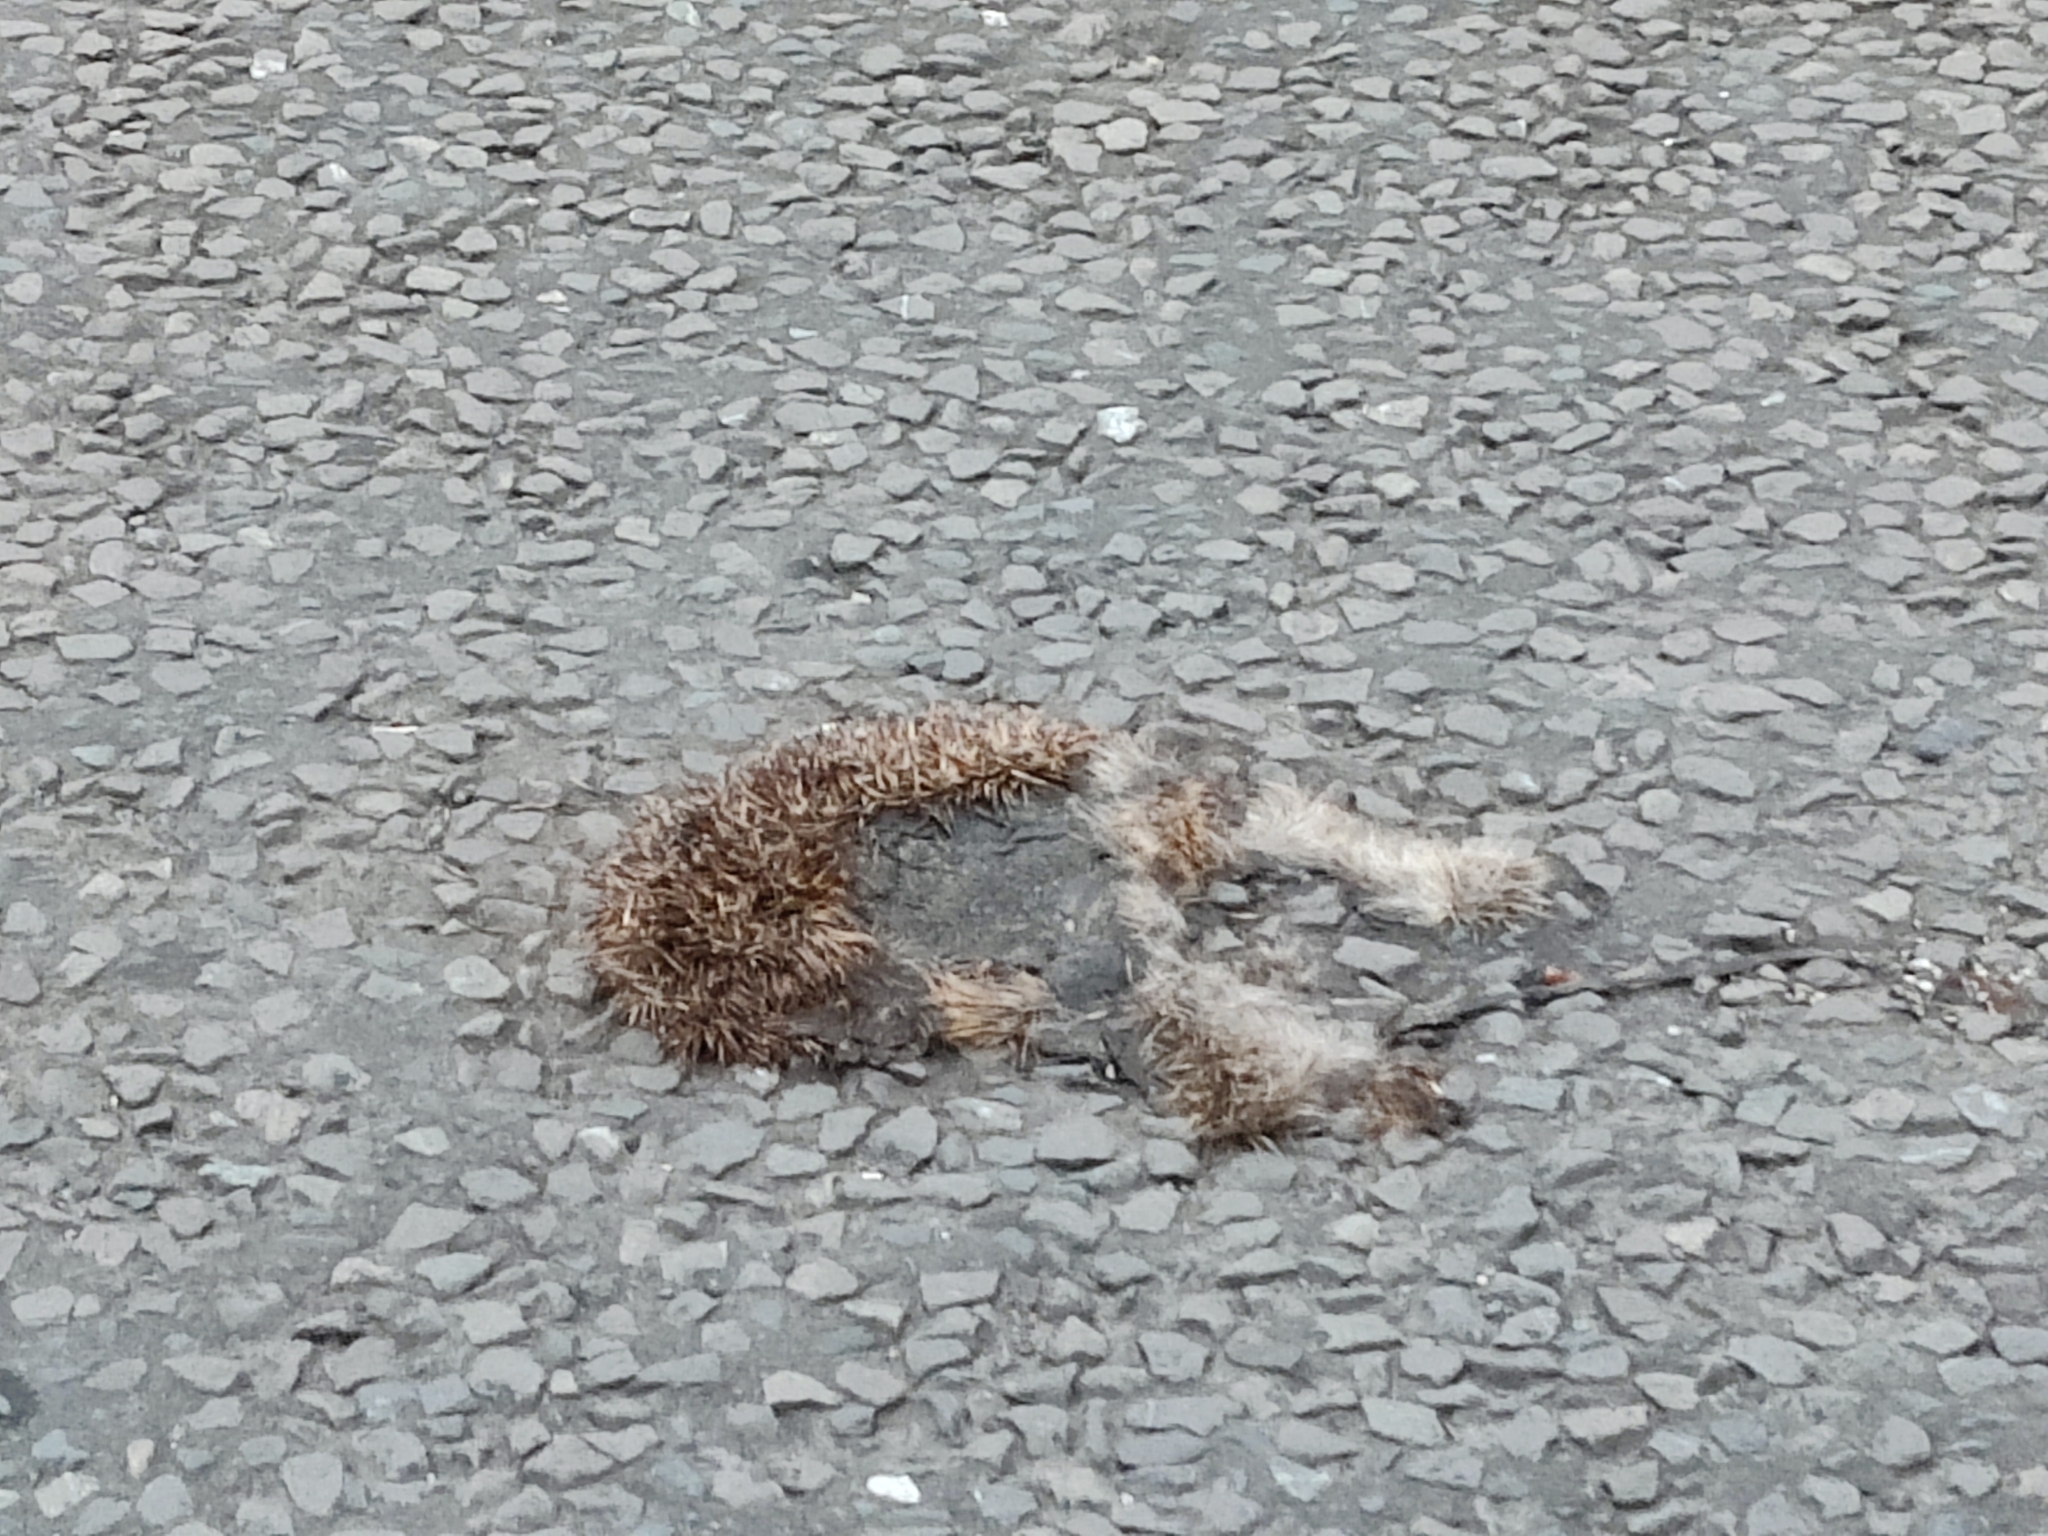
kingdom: Animalia
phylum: Chordata
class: Mammalia
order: Erinaceomorpha
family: Erinaceidae
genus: Erinaceus
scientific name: Erinaceus europaeus
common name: West european hedgehog
